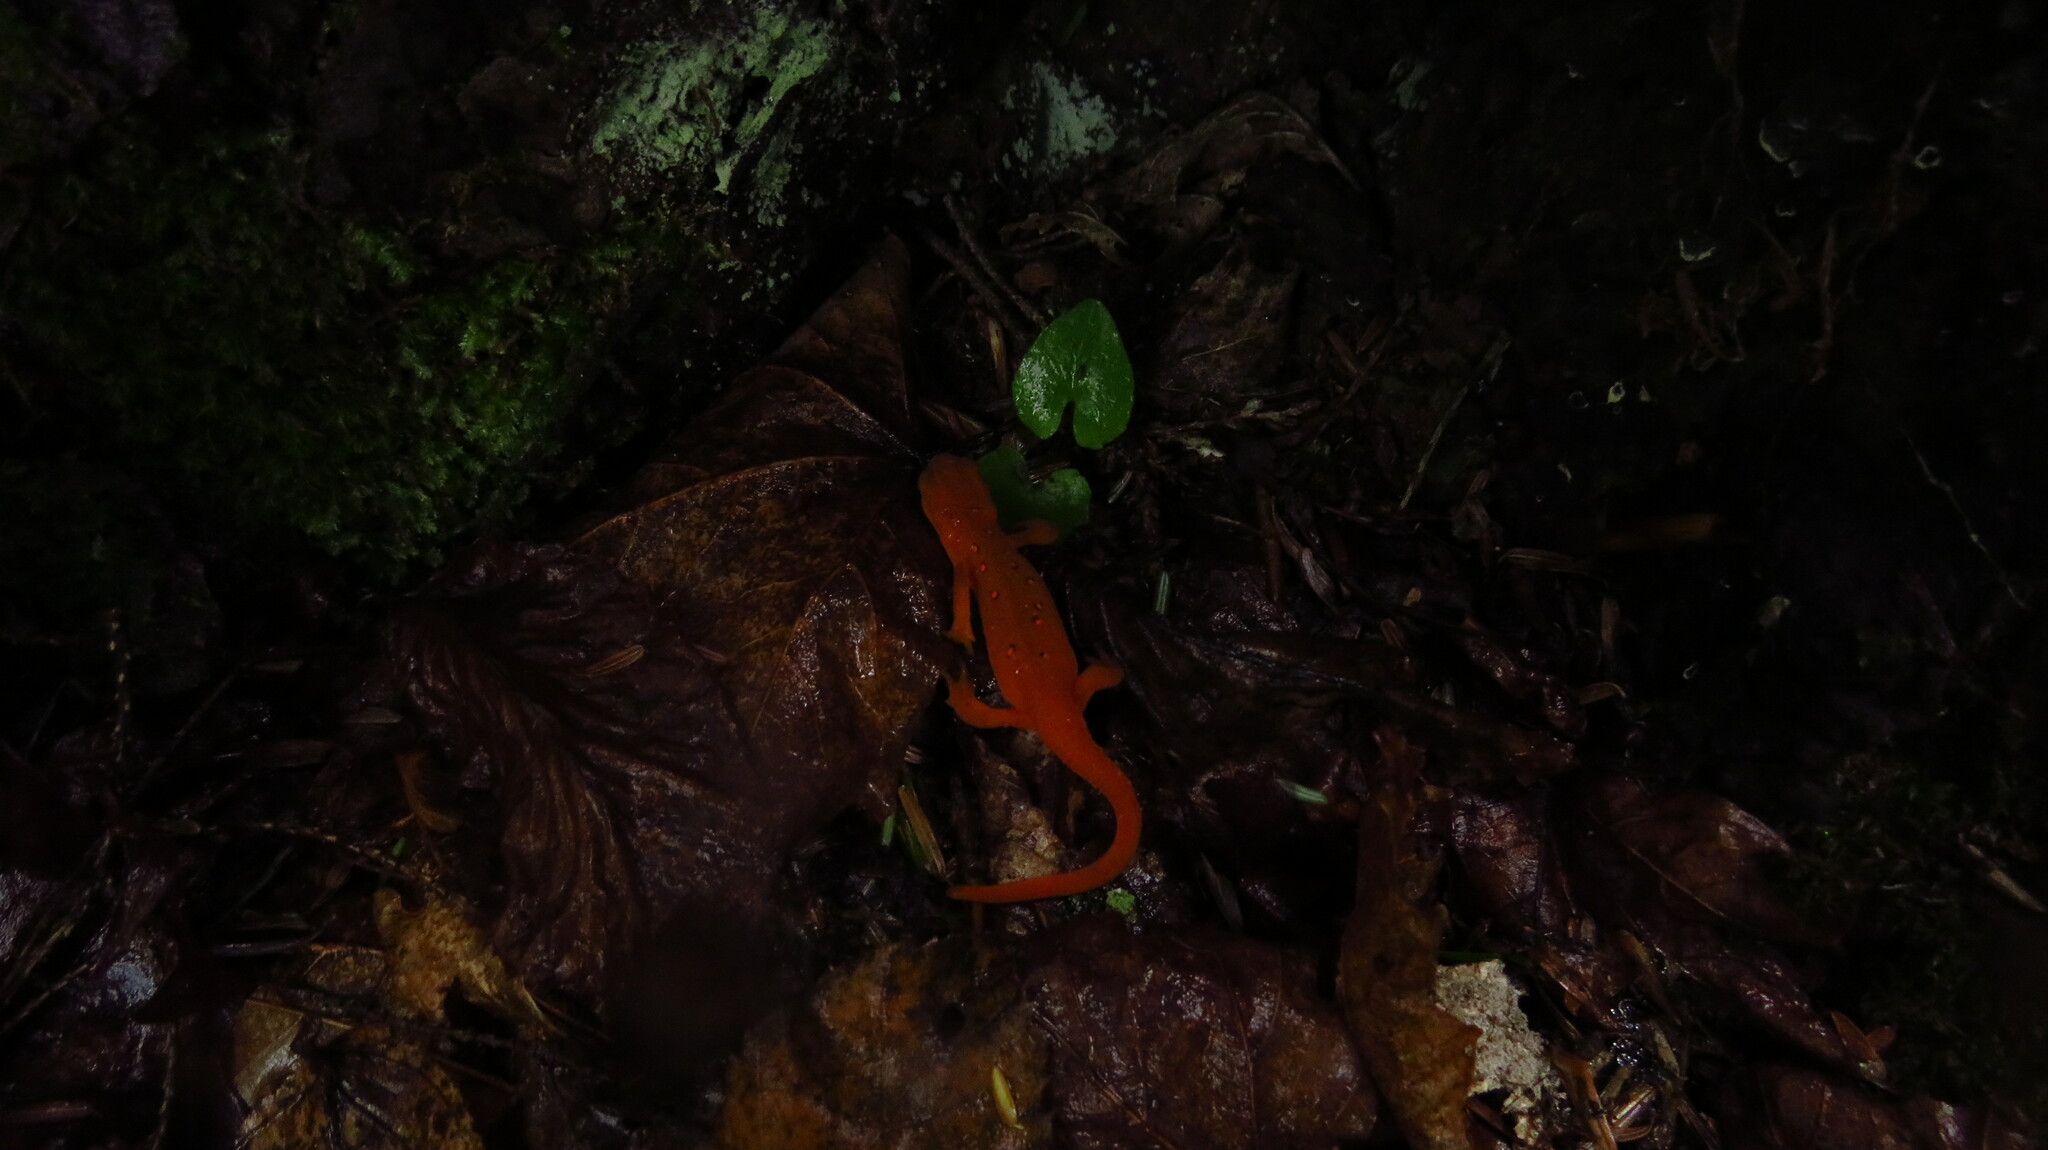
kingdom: Animalia
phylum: Chordata
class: Amphibia
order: Caudata
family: Salamandridae
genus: Notophthalmus
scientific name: Notophthalmus viridescens
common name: Eastern newt
